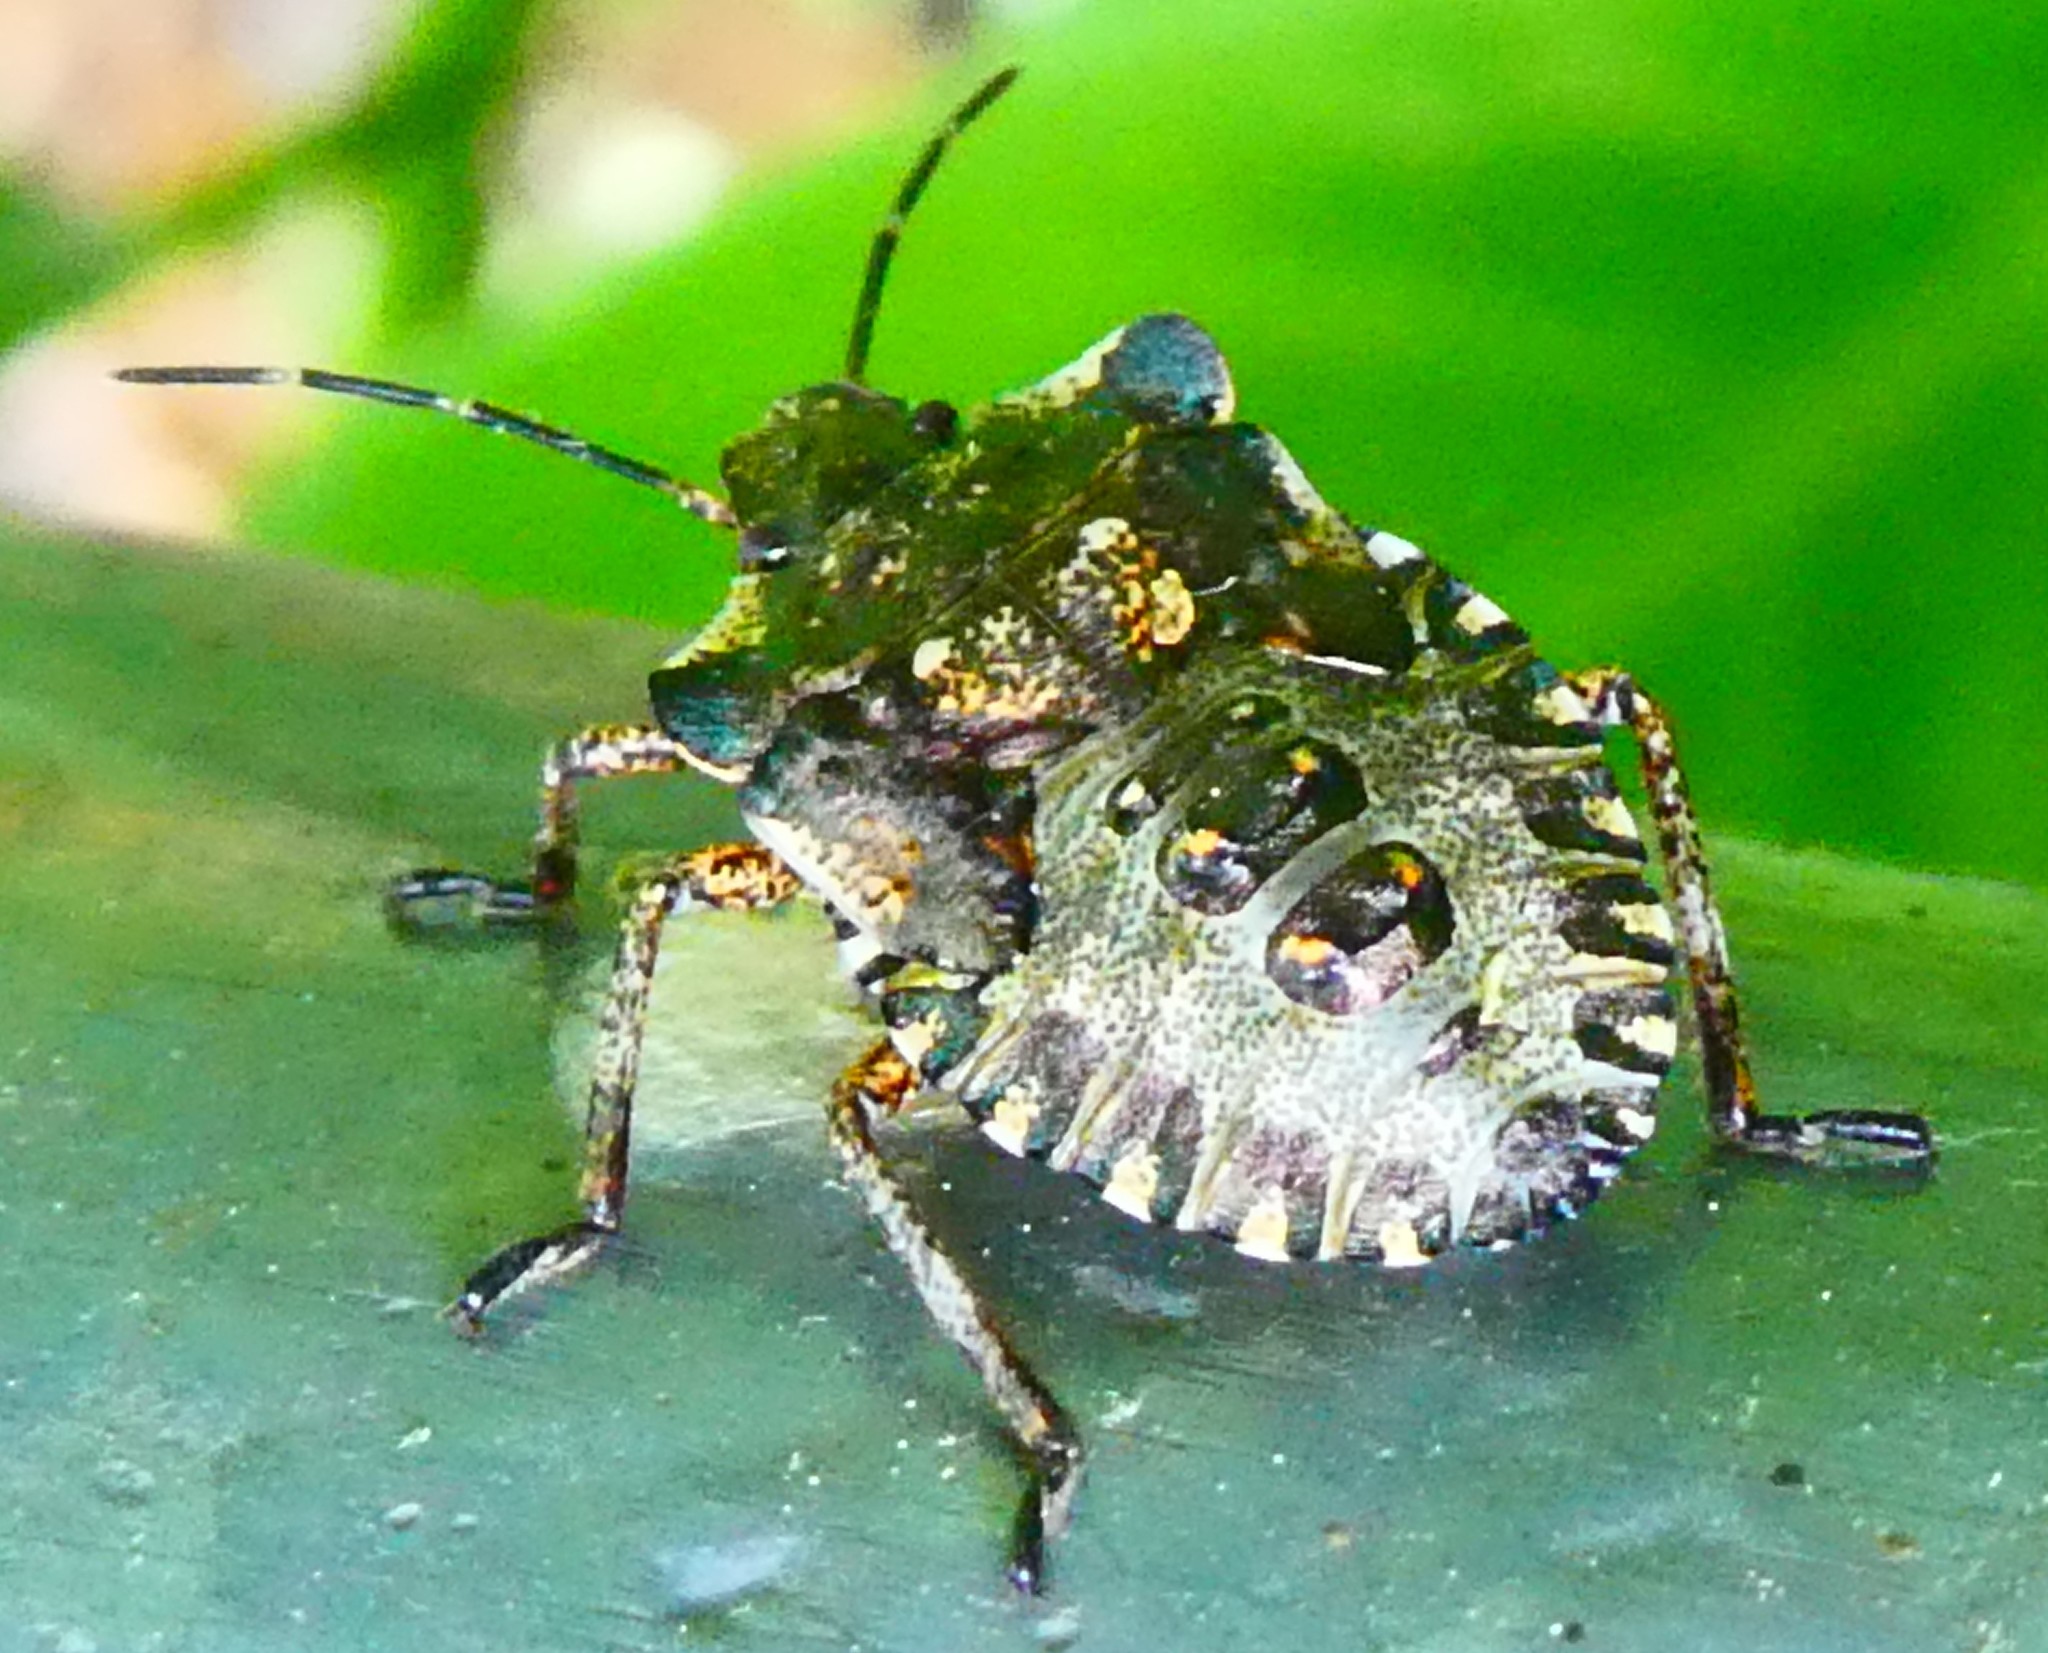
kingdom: Animalia
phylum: Arthropoda
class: Insecta
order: Hemiptera
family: Pentatomidae
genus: Pentatoma
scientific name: Pentatoma rufipes
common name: Forest bug
